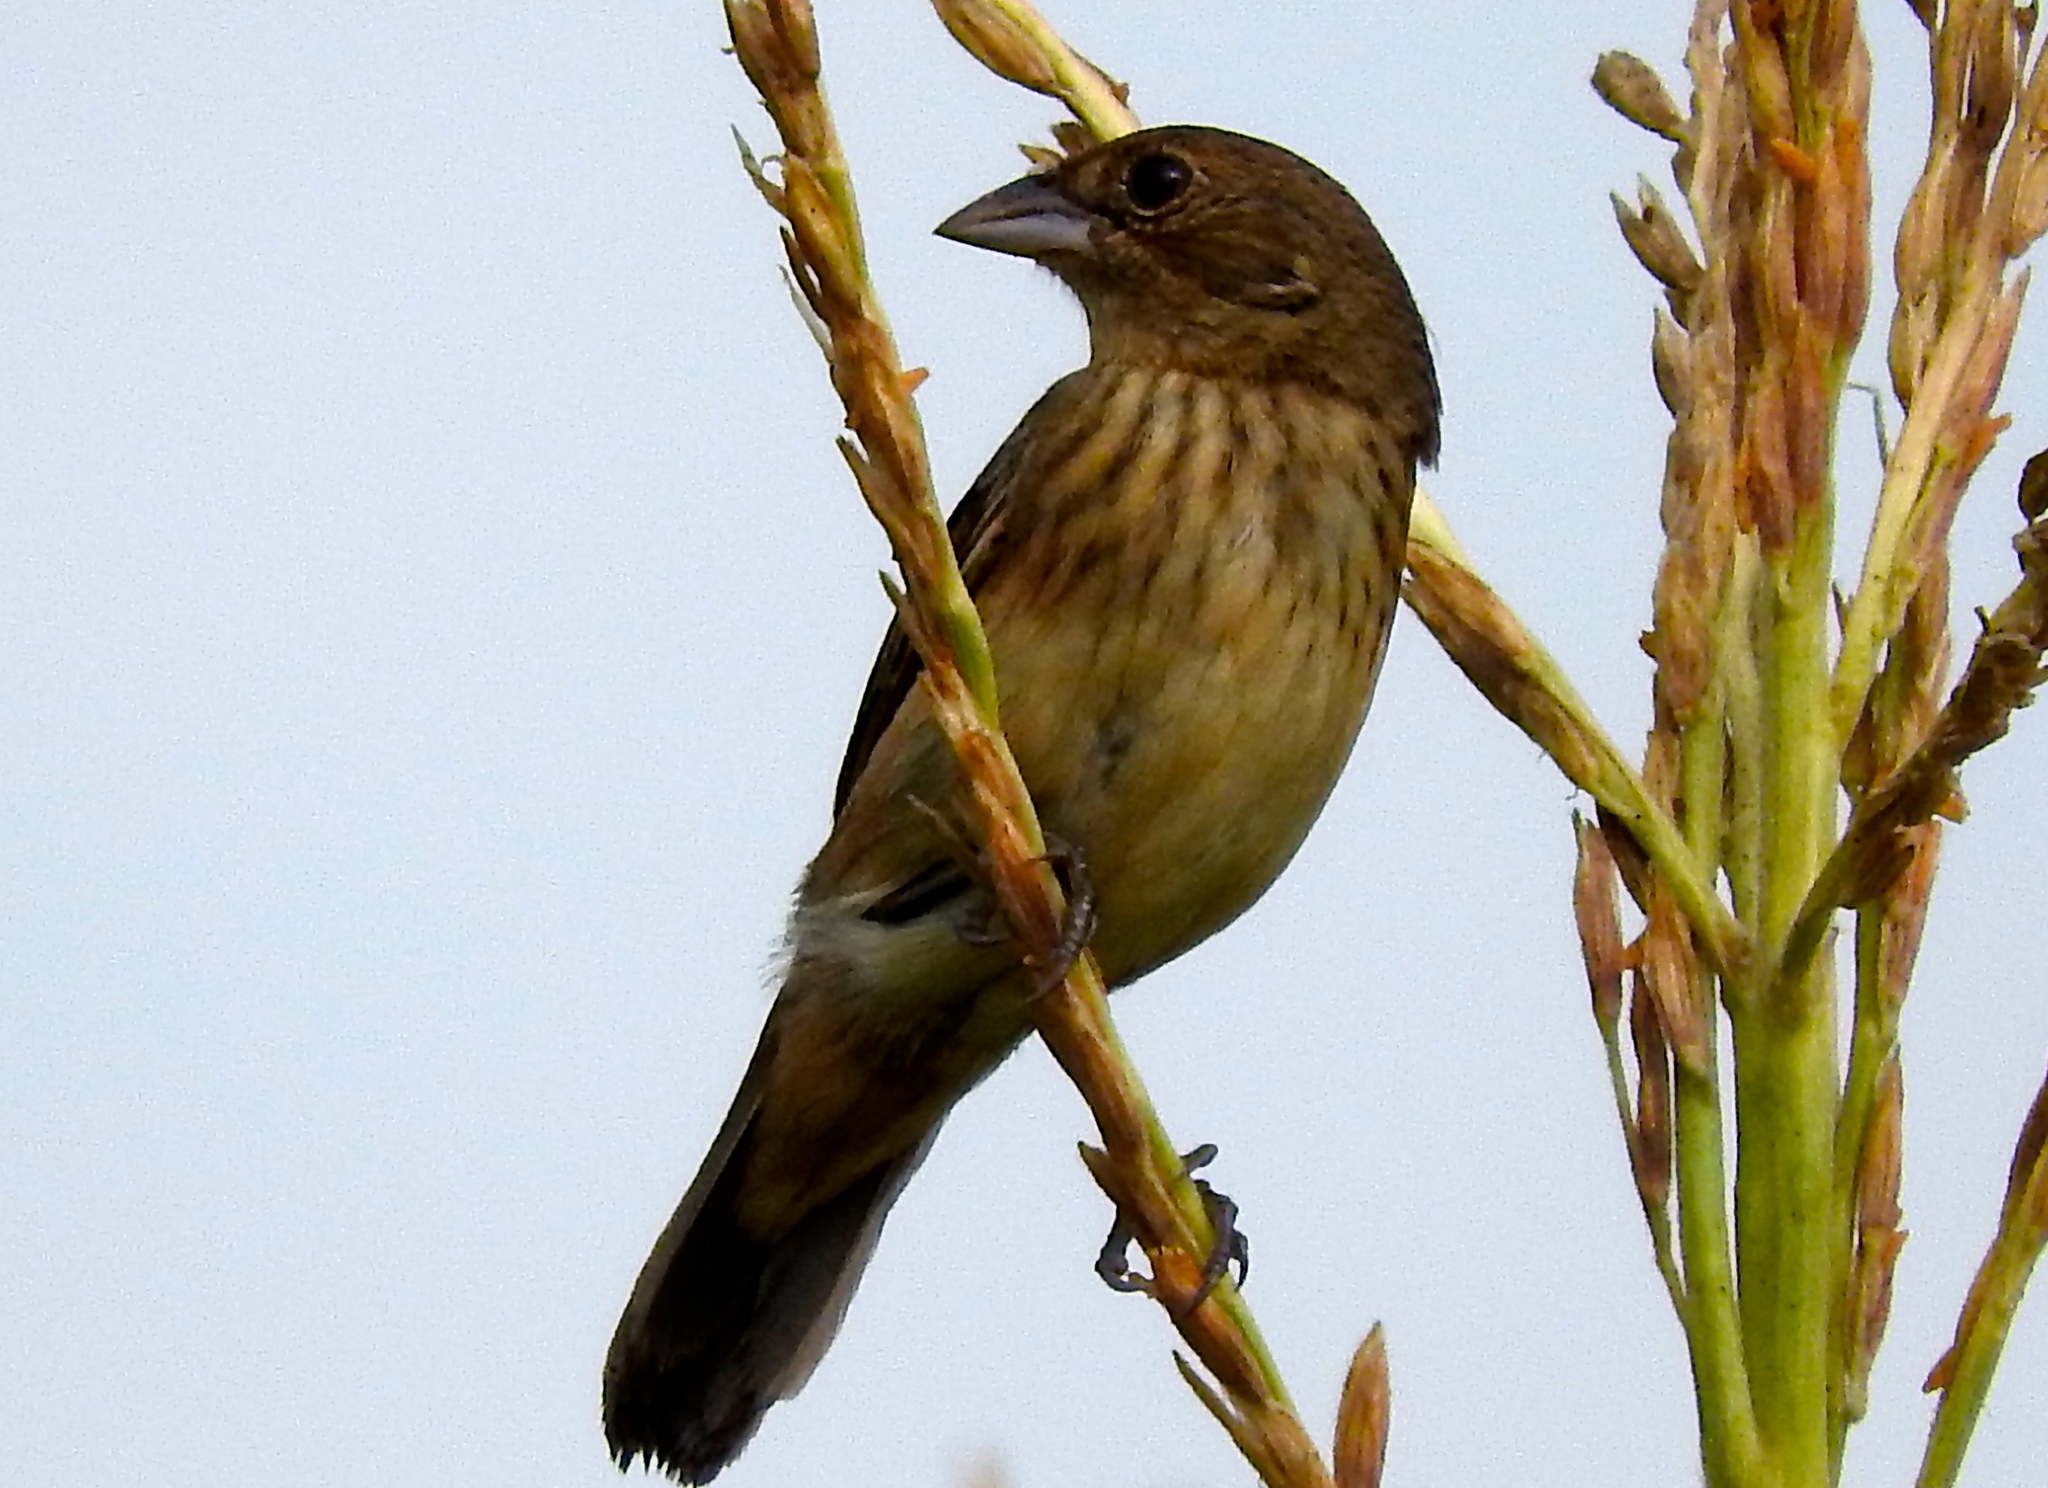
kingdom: Animalia
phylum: Chordata
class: Aves
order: Passeriformes
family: Thraupidae
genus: Volatinia
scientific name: Volatinia jacarina
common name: Blue-black grassquit
